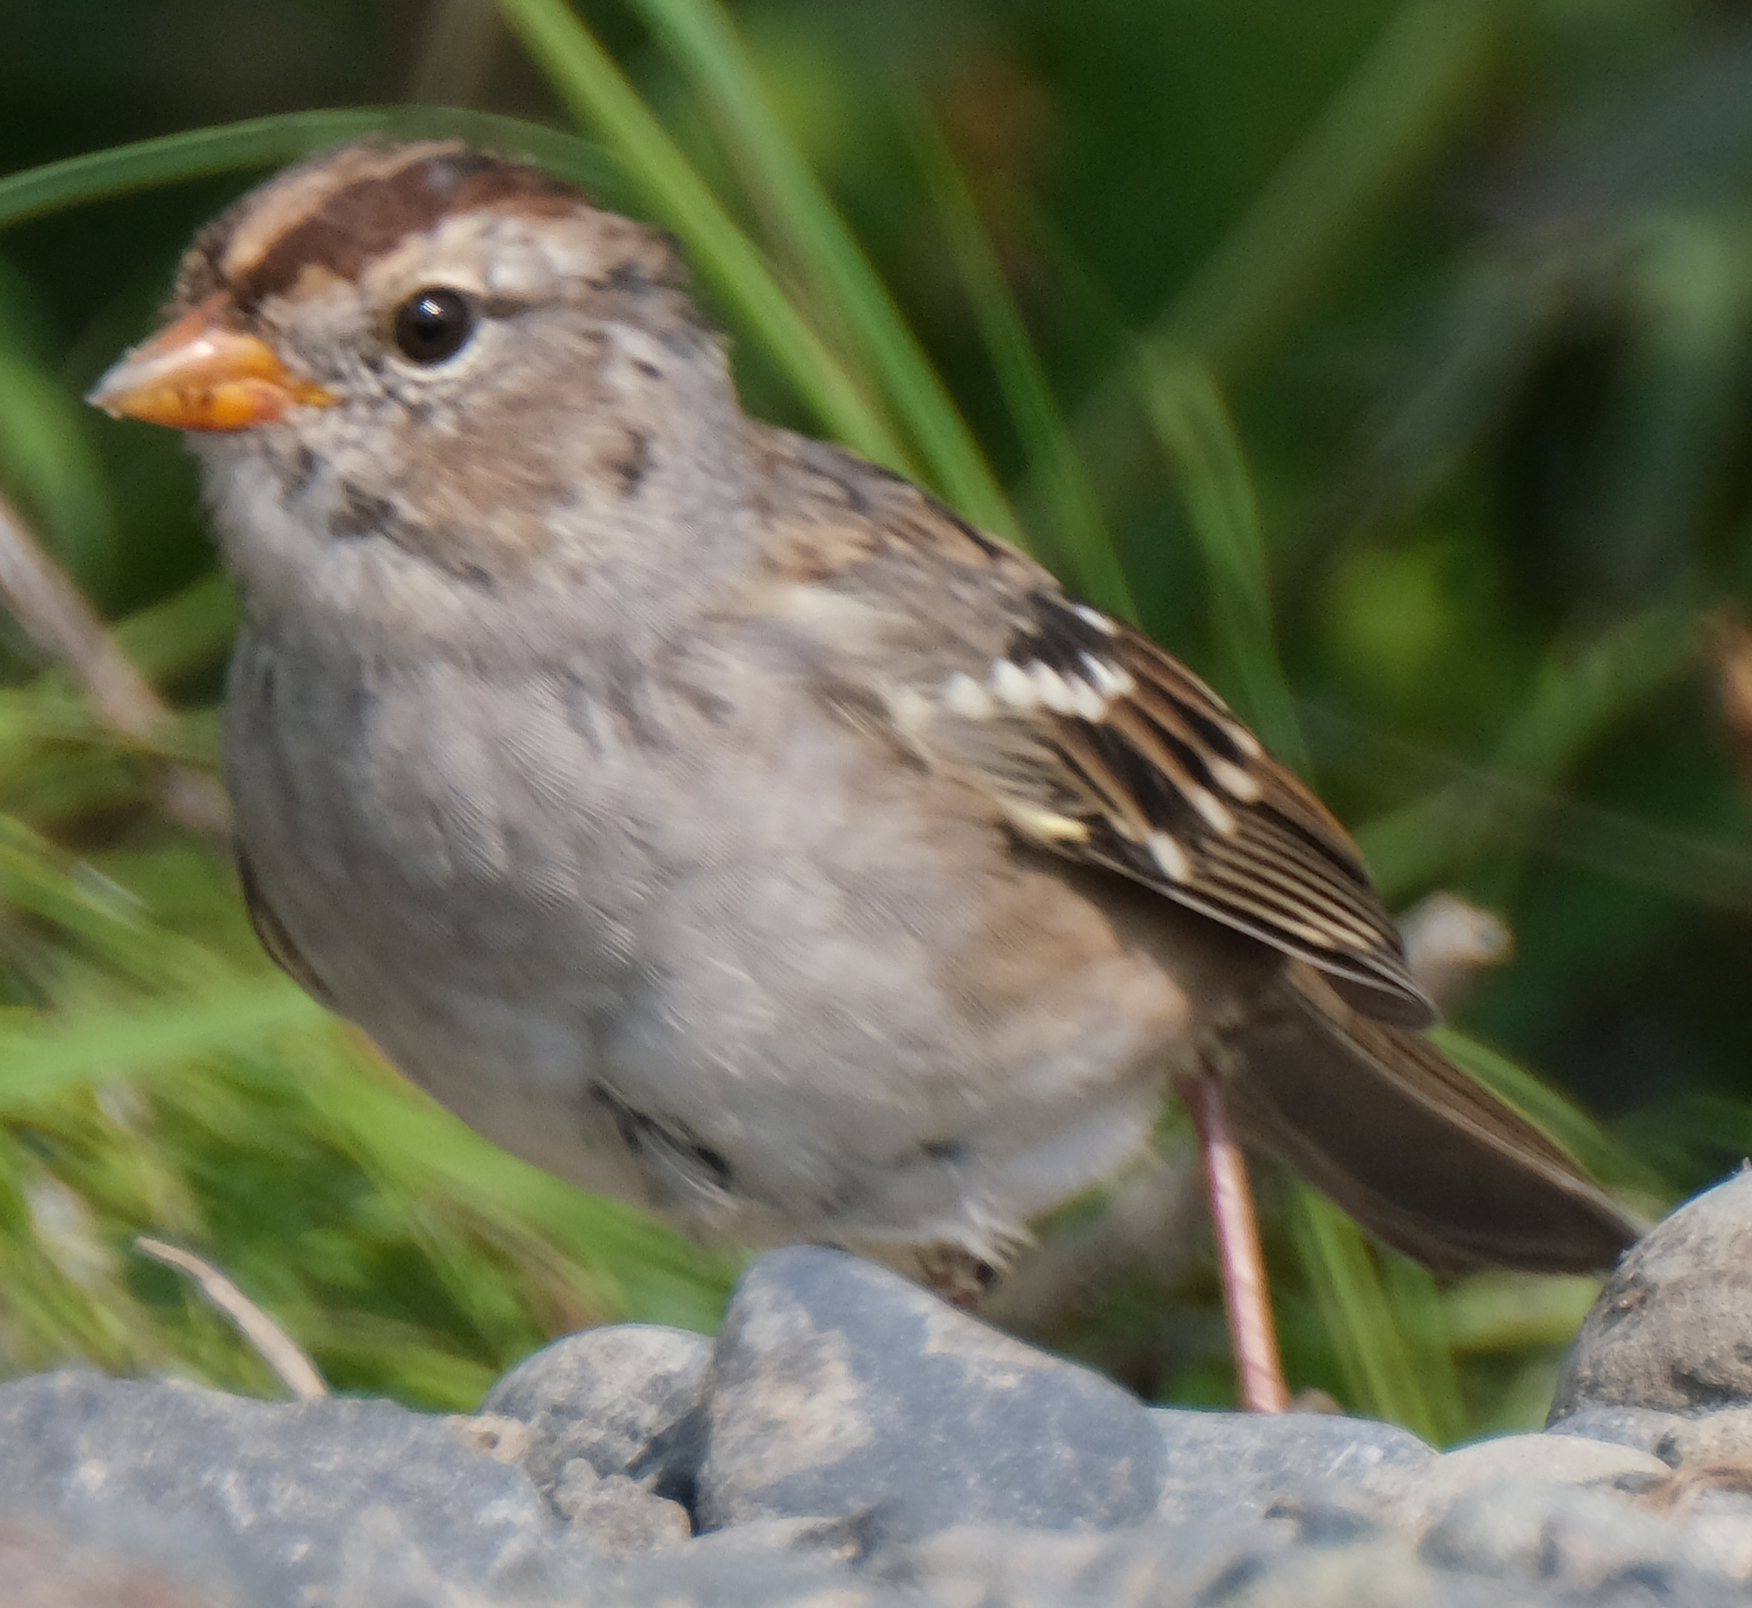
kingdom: Animalia
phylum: Chordata
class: Aves
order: Passeriformes
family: Passerellidae
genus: Zonotrichia
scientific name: Zonotrichia leucophrys
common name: White-crowned sparrow
